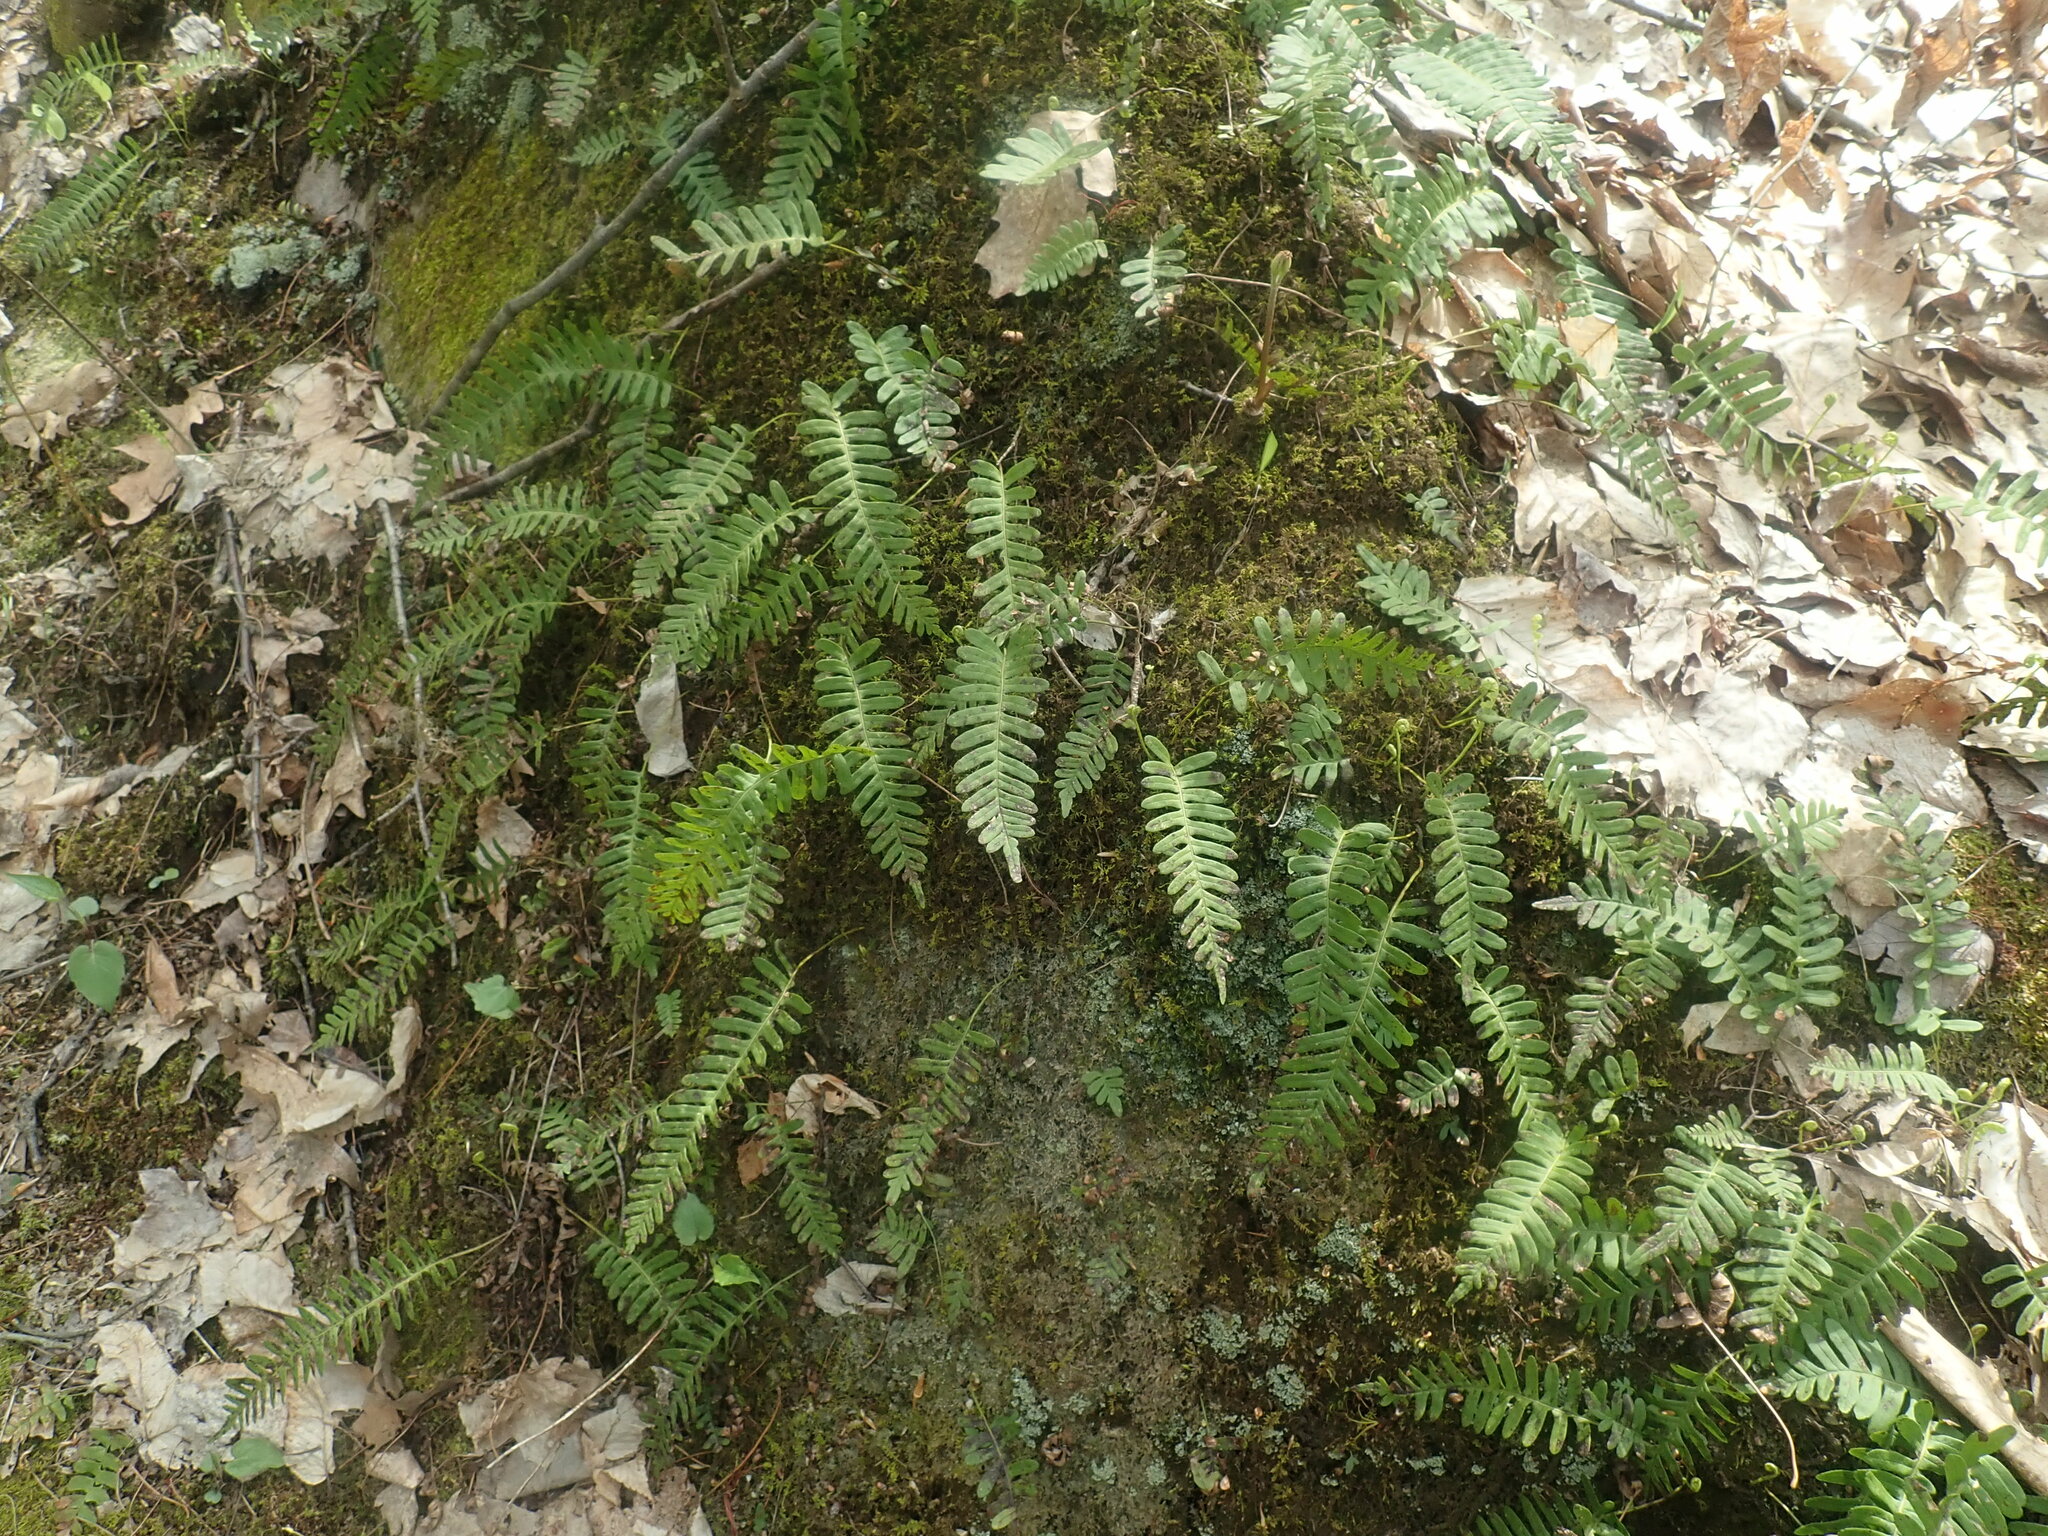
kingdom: Plantae
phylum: Tracheophyta
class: Polypodiopsida
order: Polypodiales
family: Polypodiaceae
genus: Polypodium
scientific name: Polypodium
